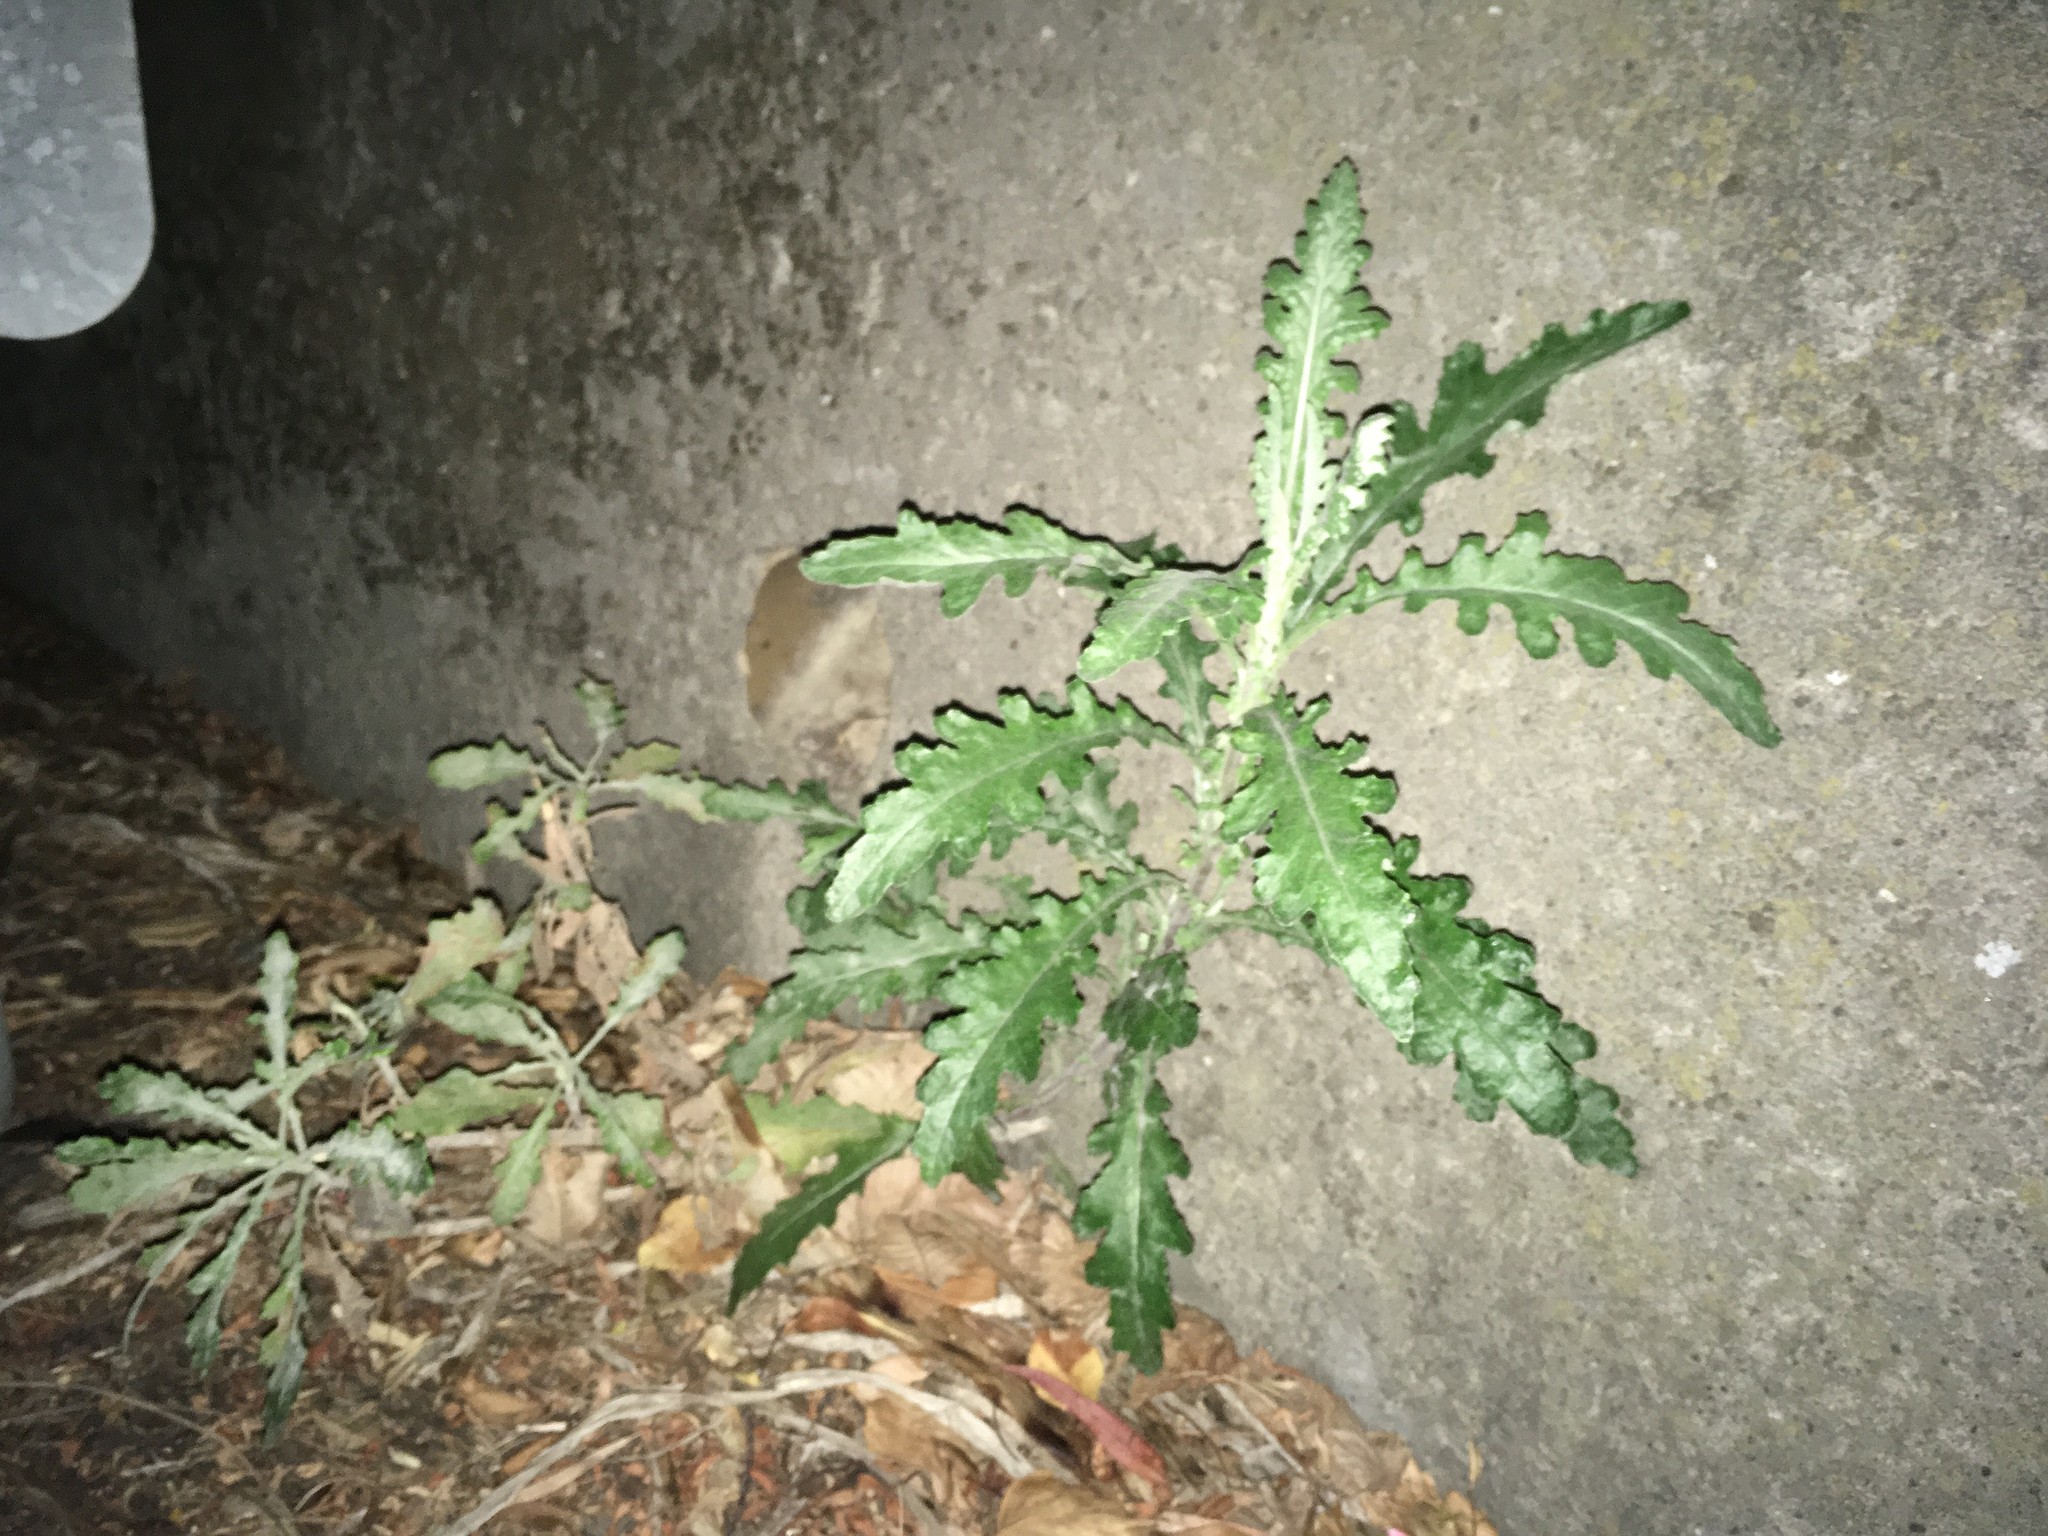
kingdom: Plantae
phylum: Tracheophyta
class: Magnoliopsida
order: Asterales
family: Asteraceae
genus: Senecio
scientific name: Senecio glomeratus
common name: Cutleaf burnweed
